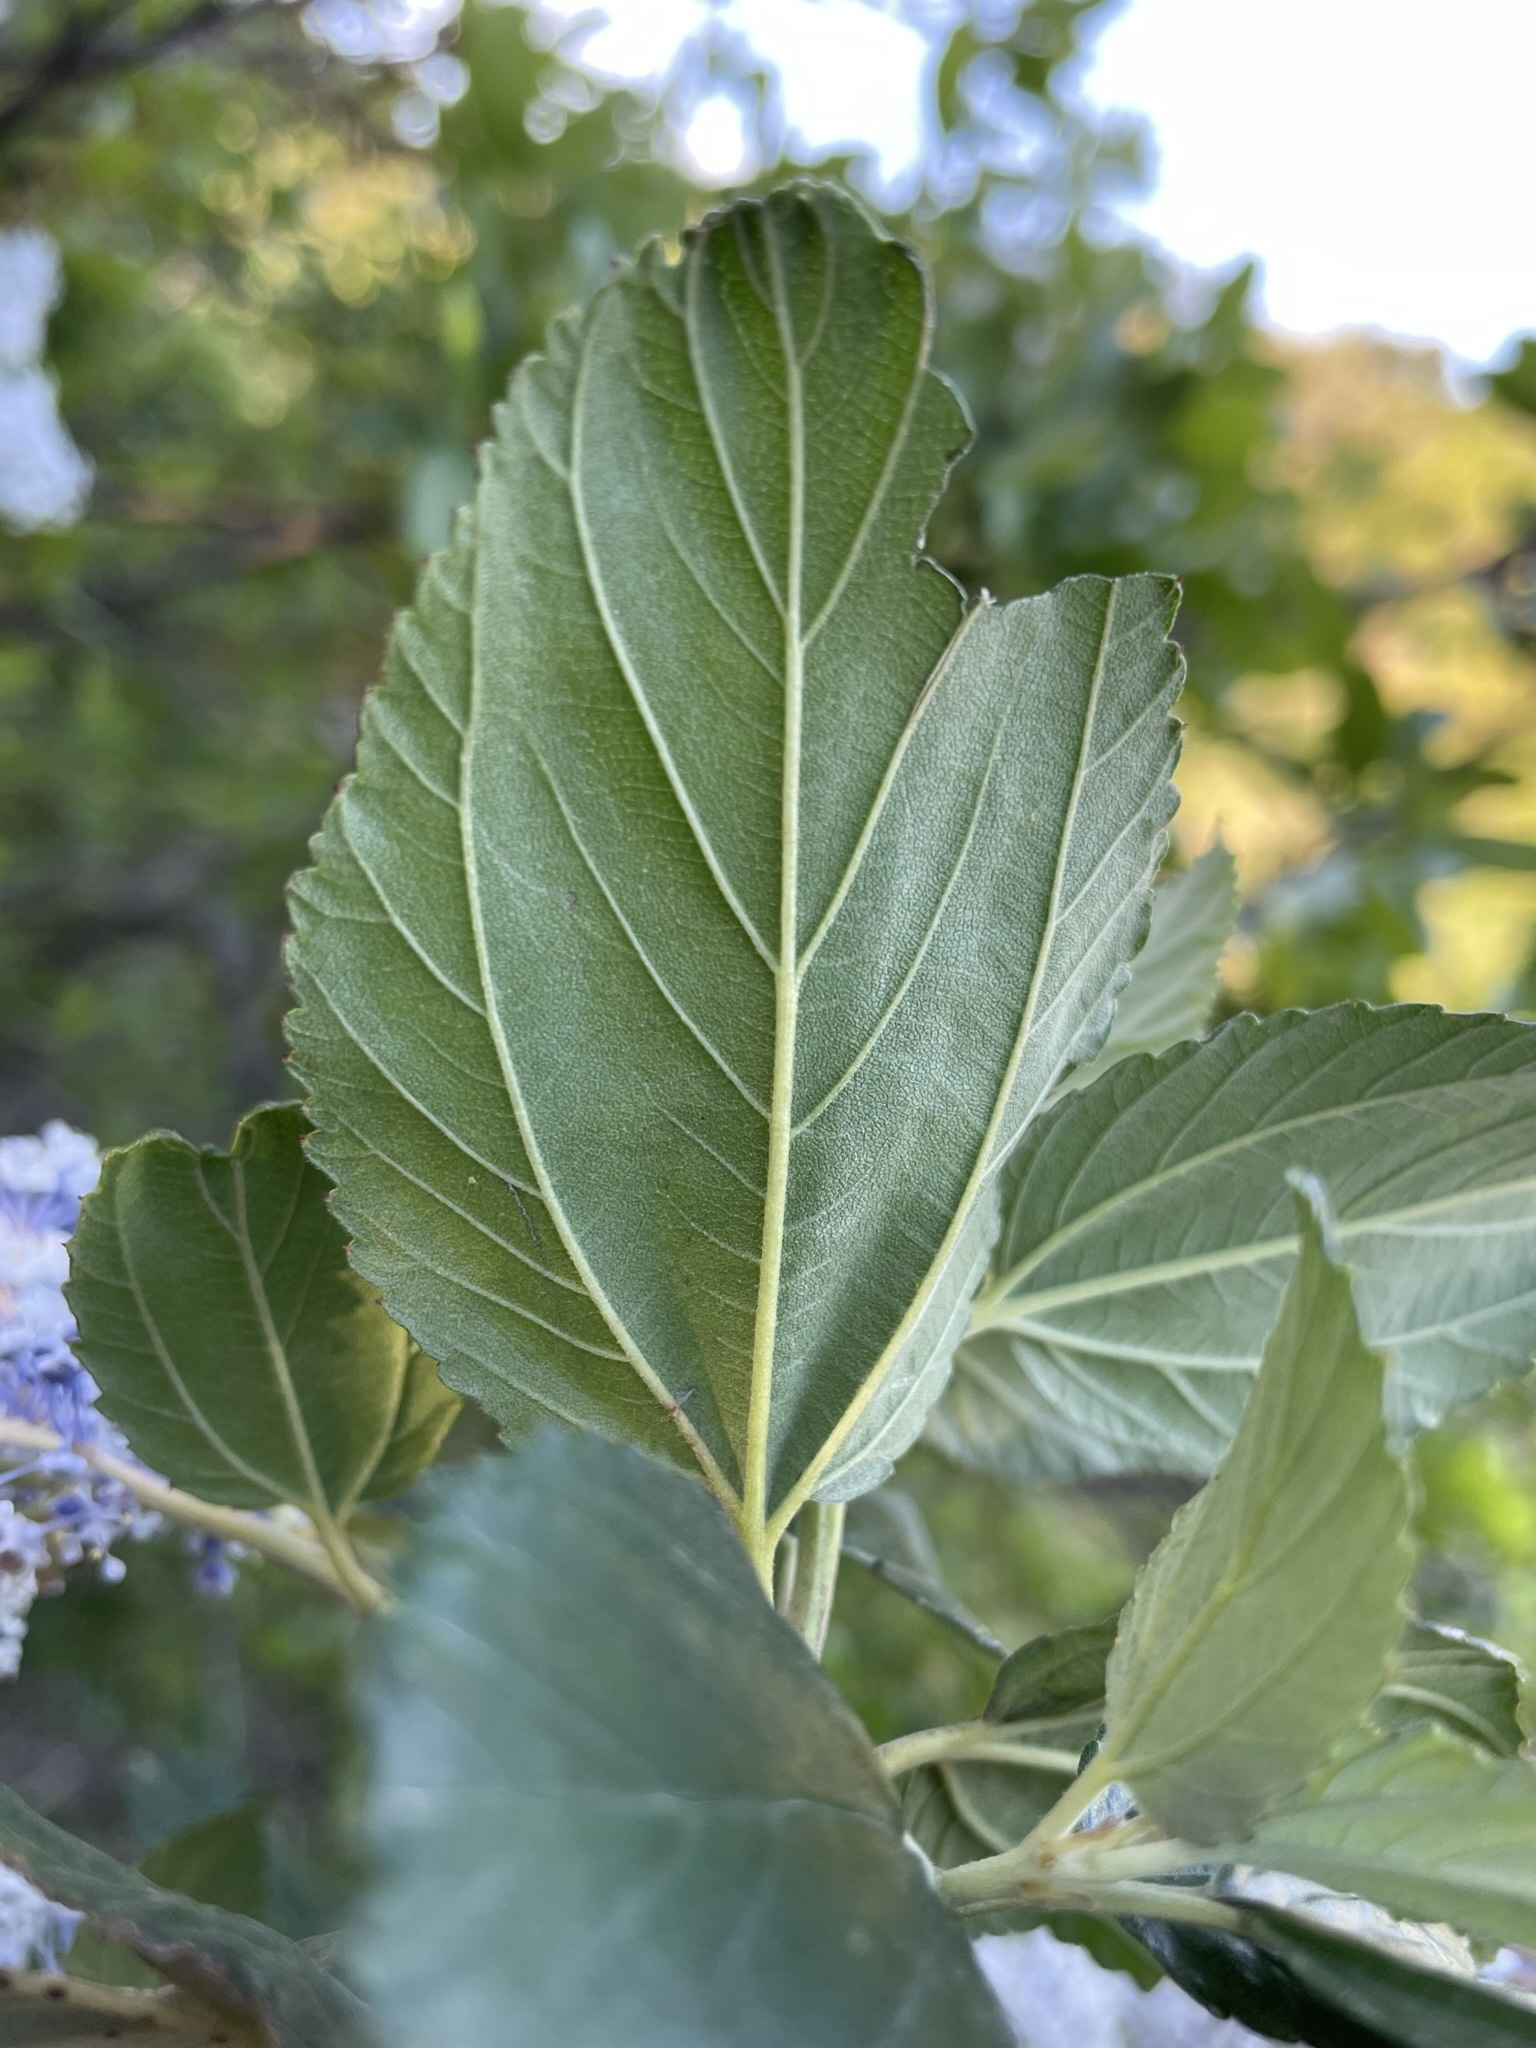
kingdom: Plantae
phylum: Tracheophyta
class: Magnoliopsida
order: Rosales
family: Rhamnaceae
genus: Ceanothus
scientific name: Ceanothus arboreus
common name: Catalina mountain-lilac
